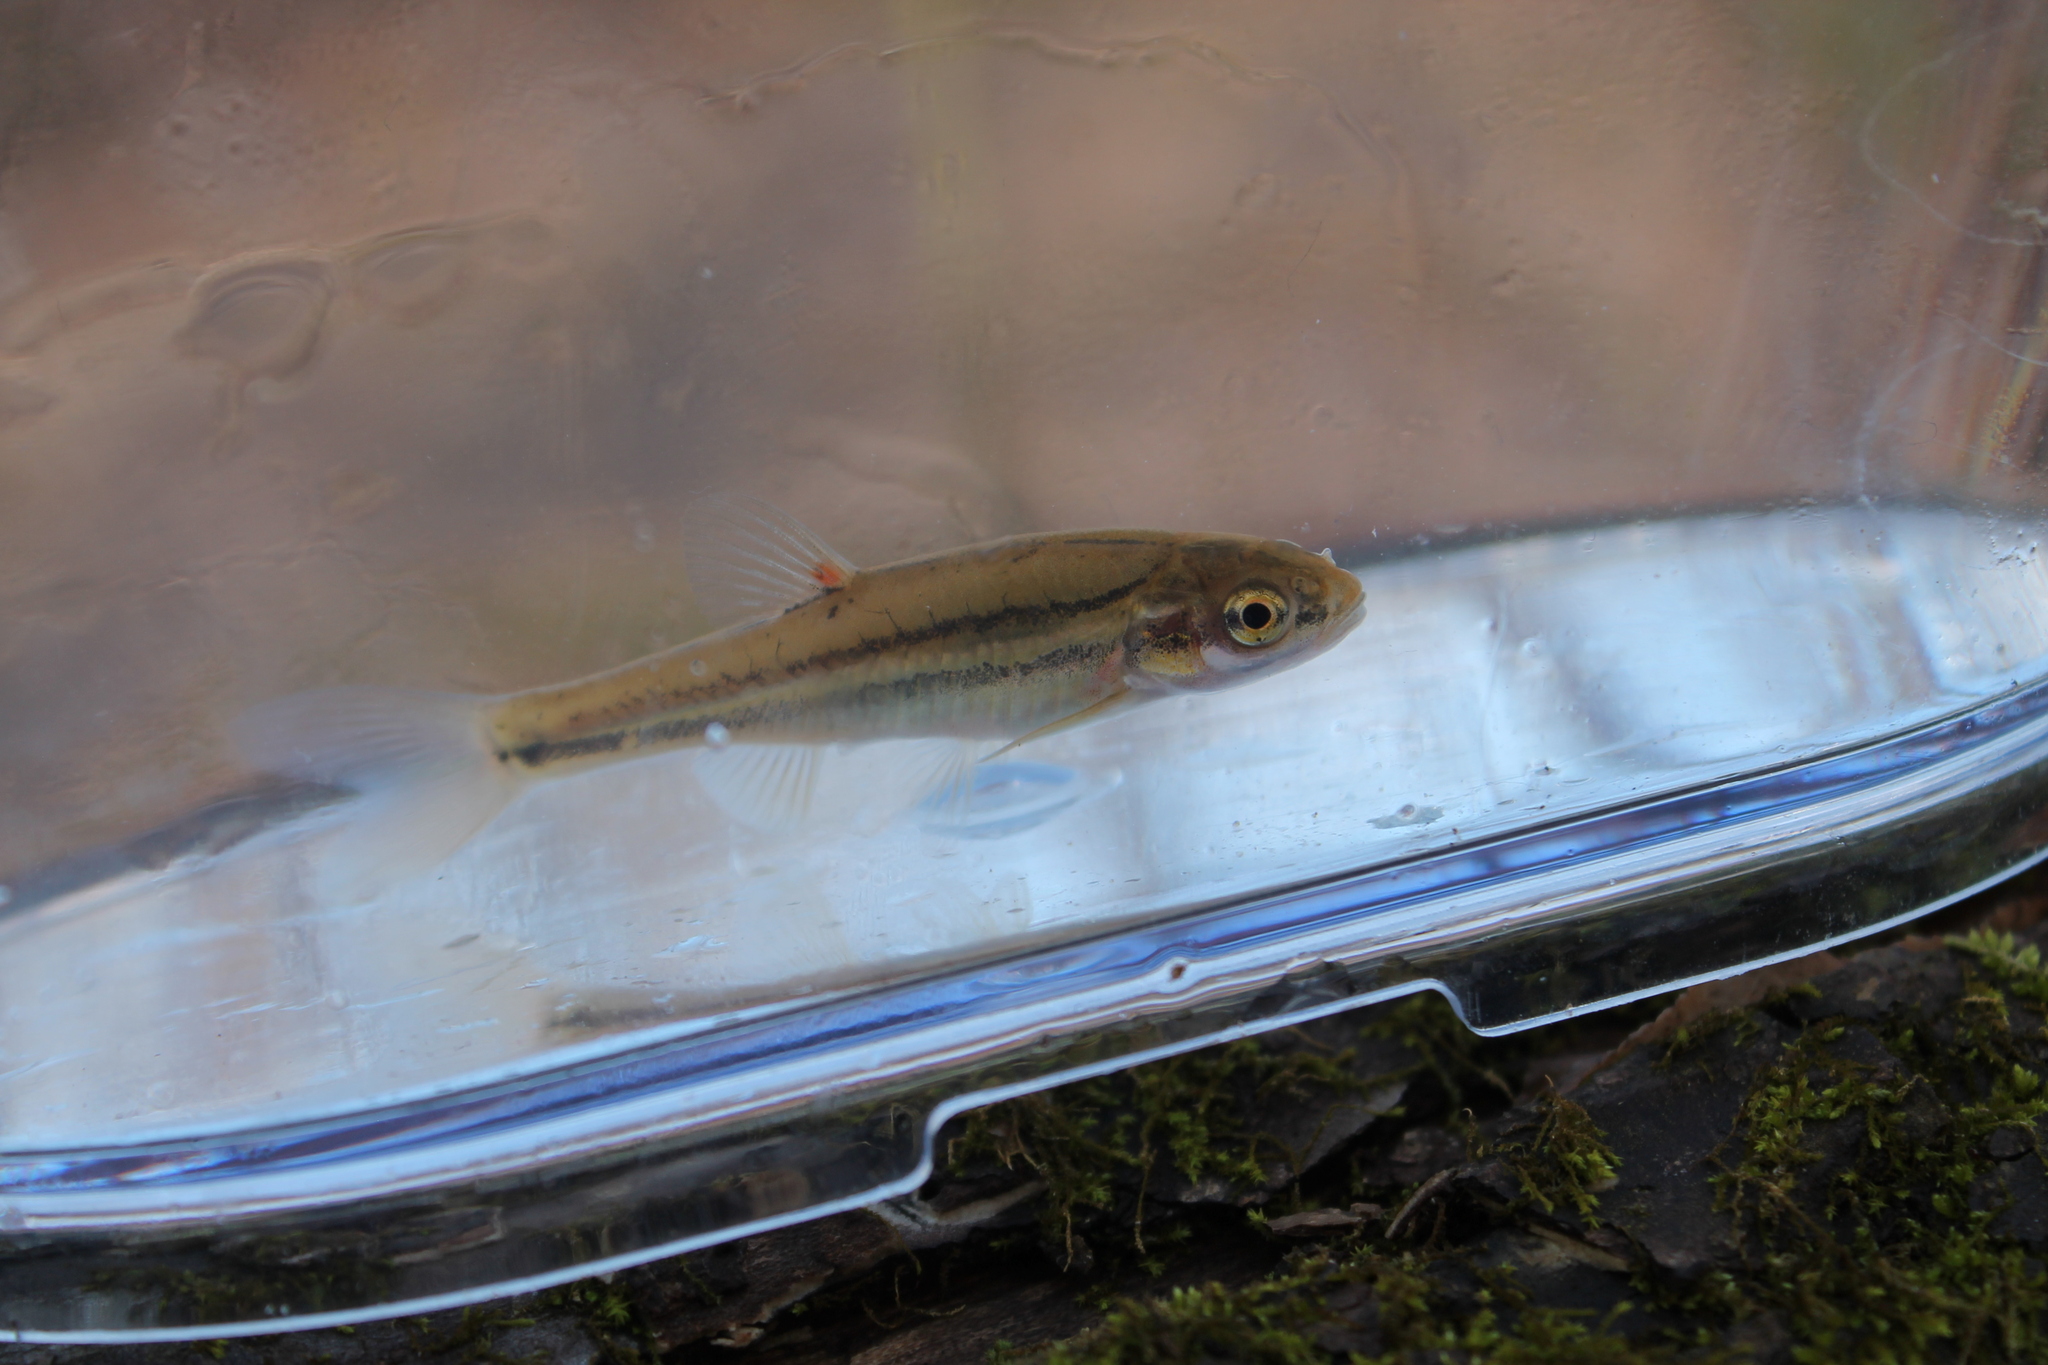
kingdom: Animalia
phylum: Chordata
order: Cypriniformes
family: Cyprinidae
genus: Chrosomus
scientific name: Chrosomus erythrogaster
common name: Southern redbelly dace
